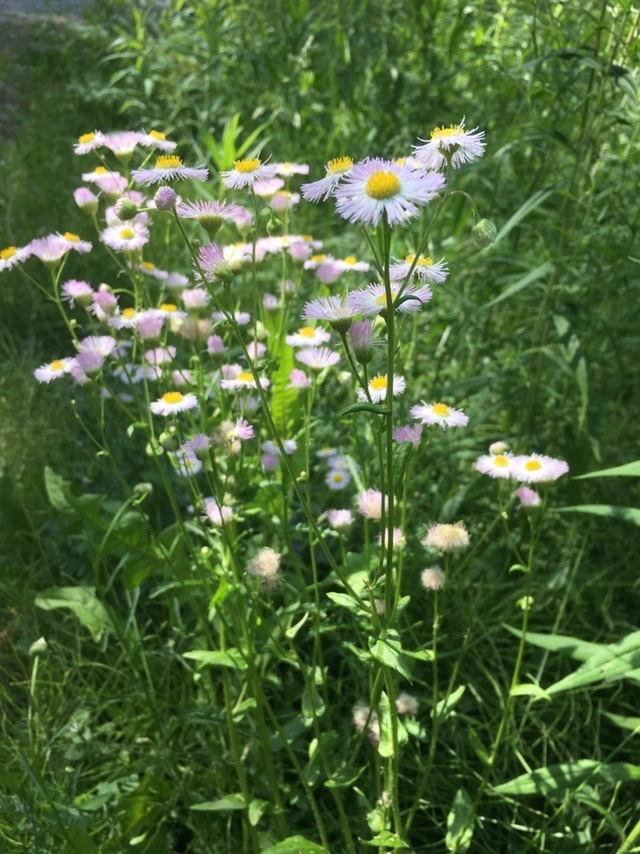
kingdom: Plantae
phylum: Tracheophyta
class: Magnoliopsida
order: Asterales
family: Asteraceae
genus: Erigeron
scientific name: Erigeron philadelphicus
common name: Robin's-plantain
